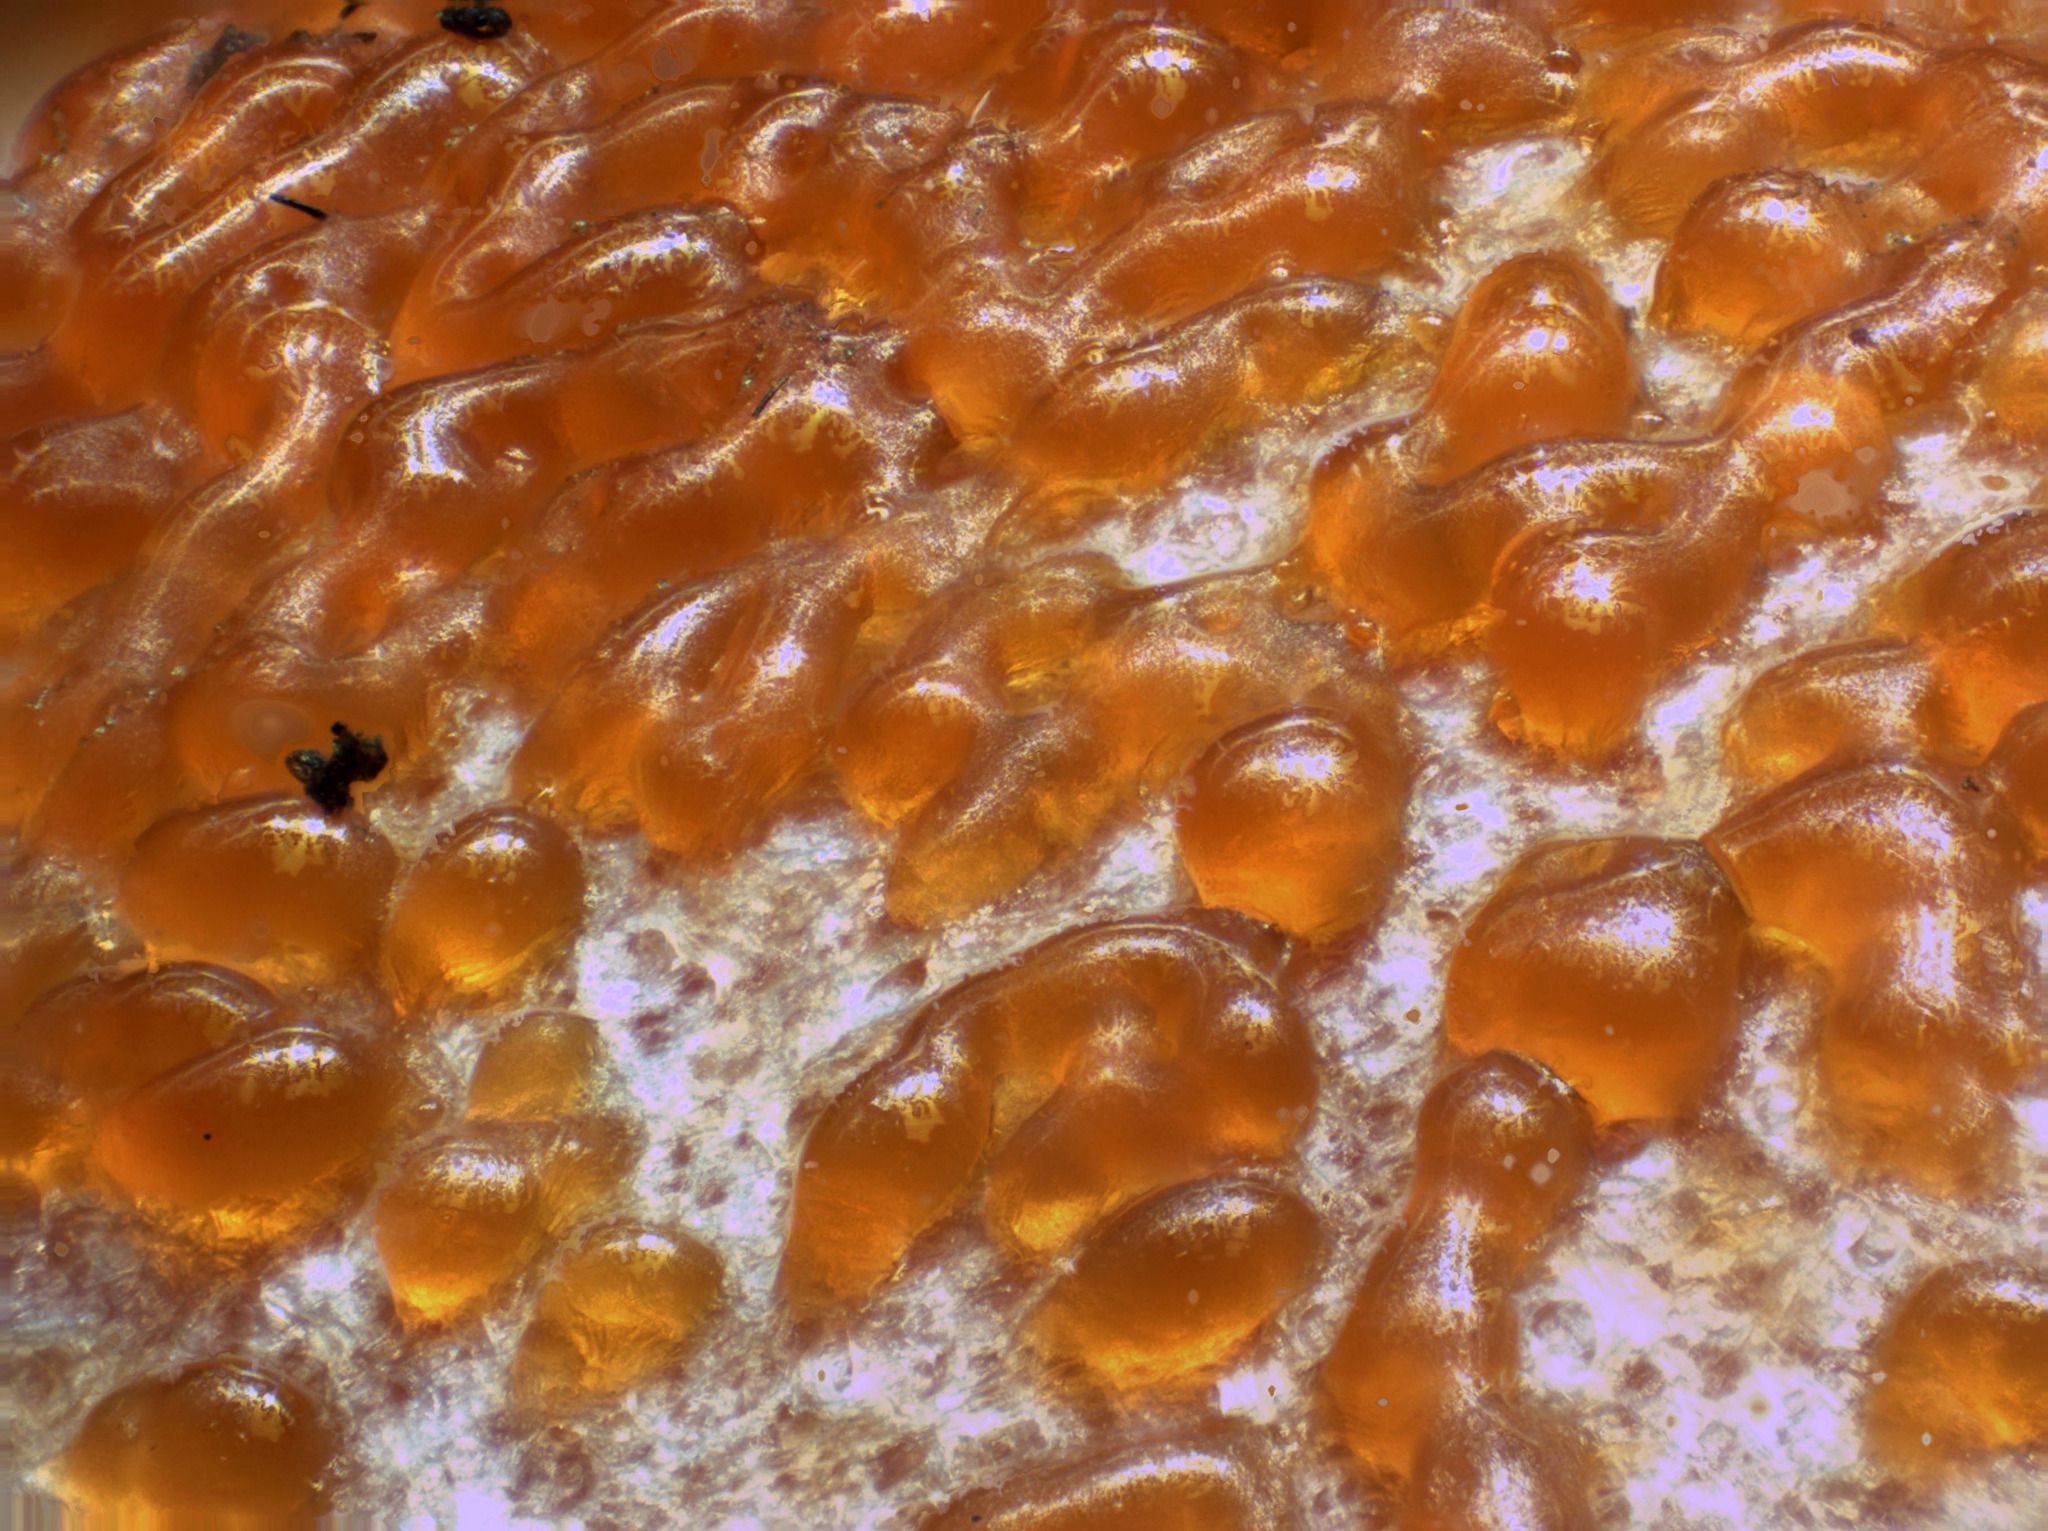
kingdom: Protozoa
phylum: Mycetozoa
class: Myxomycetes
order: Cribrariales
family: Tubiferaceae
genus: Lycogala
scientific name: Lycogala epidendrum
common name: Wolf's milk
